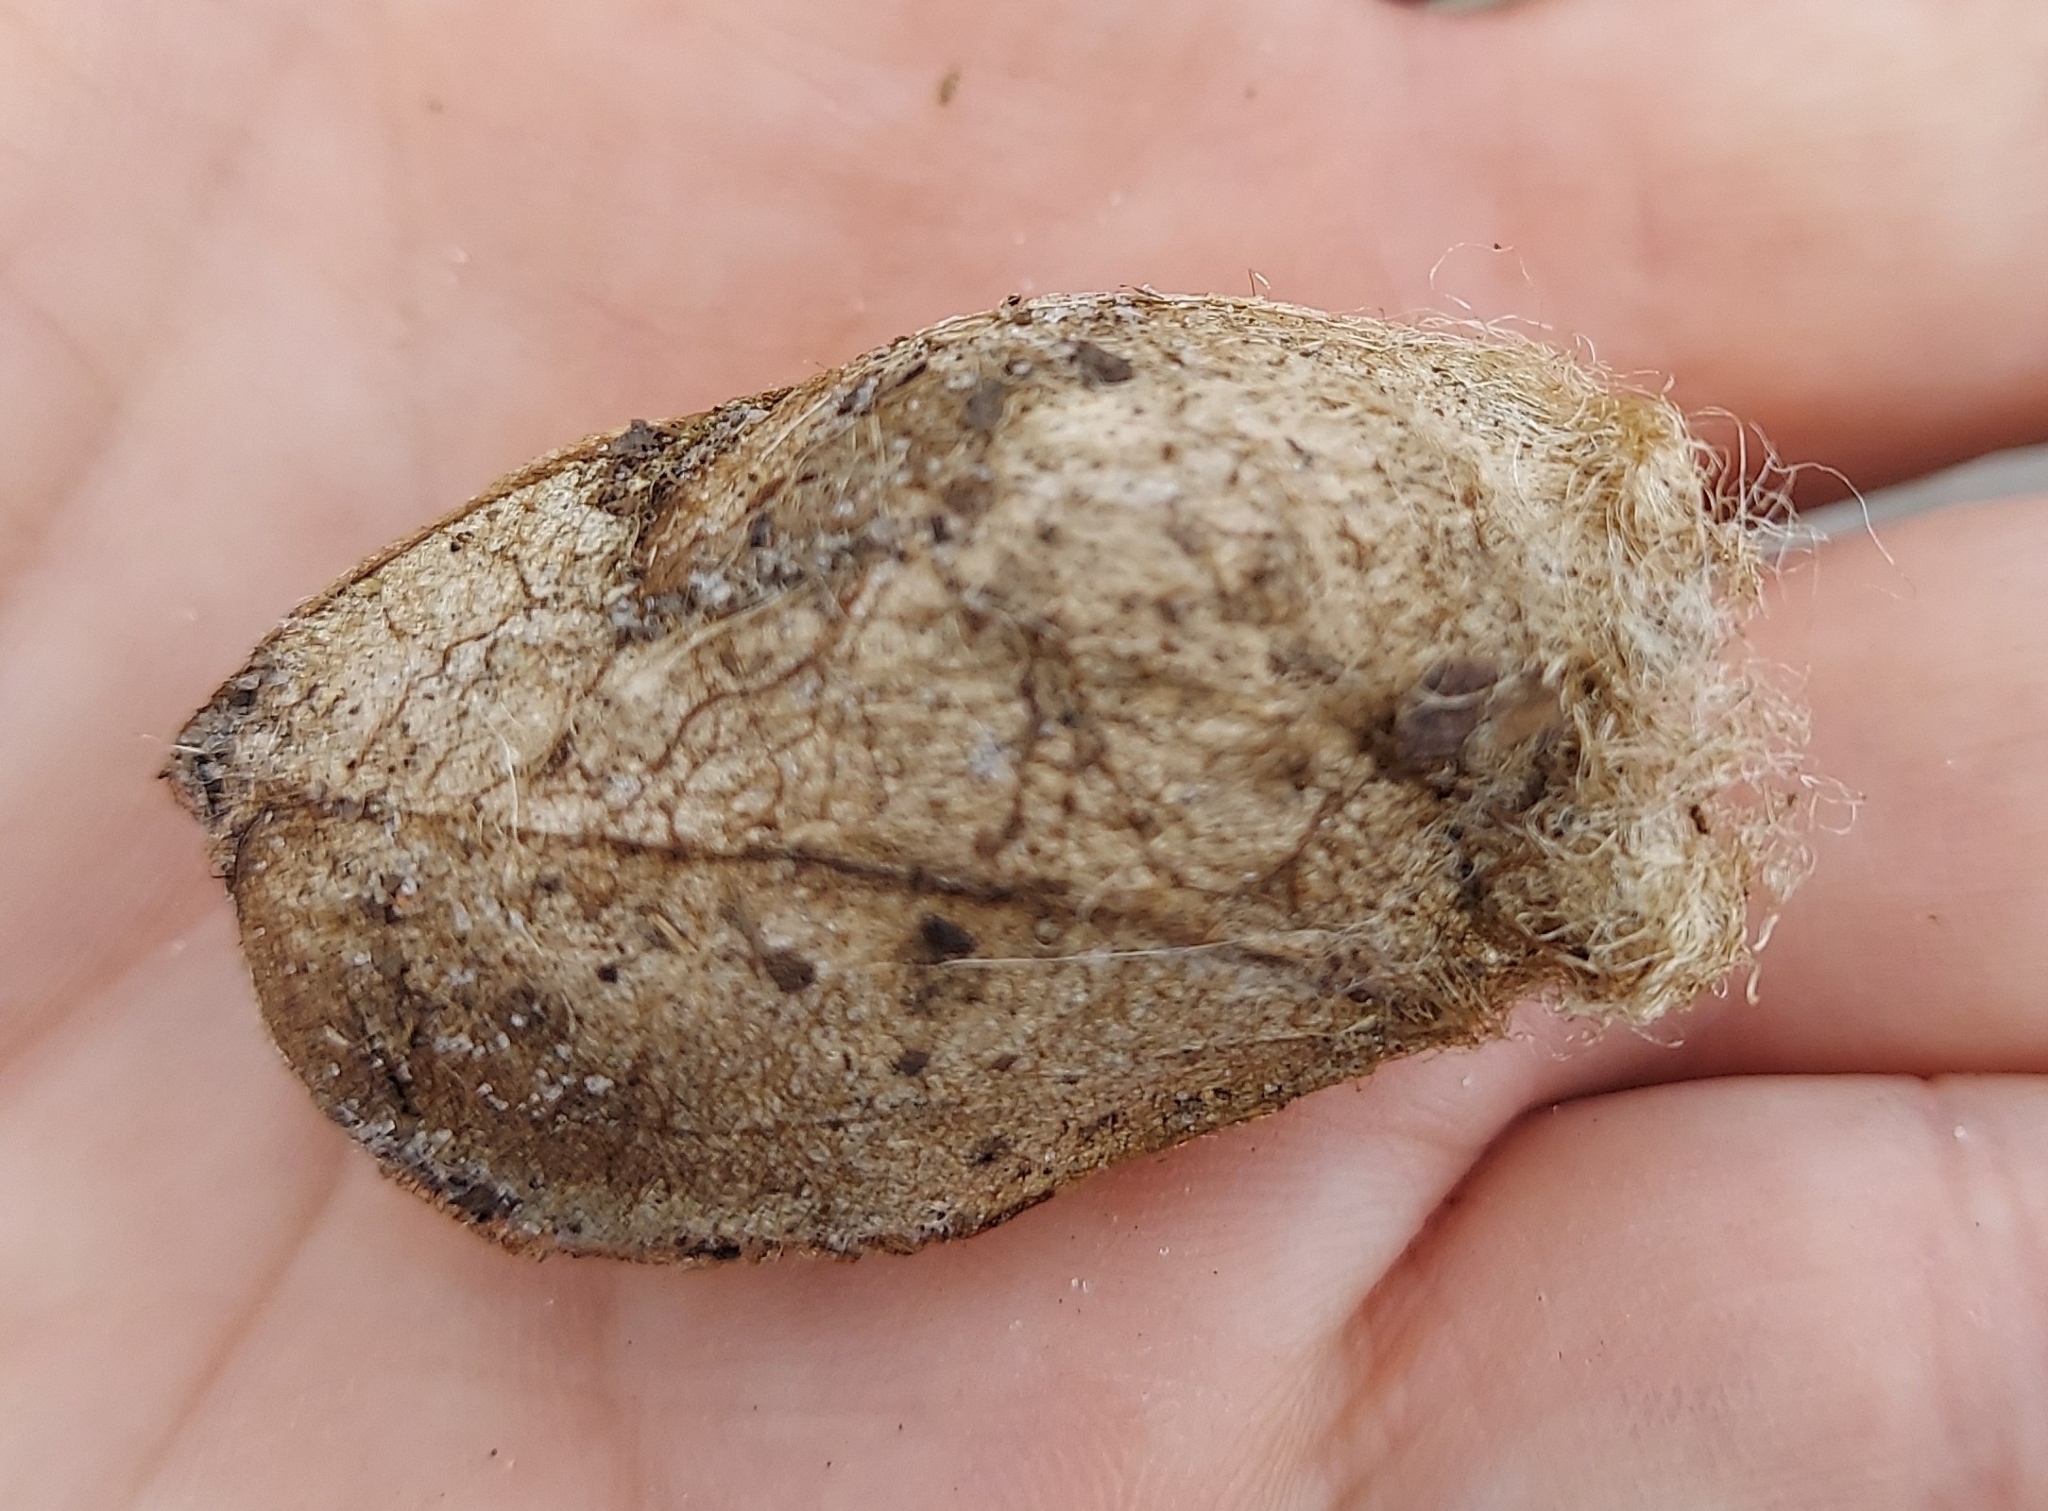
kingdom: Animalia
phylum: Arthropoda
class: Insecta
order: Lepidoptera
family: Saturniidae
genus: Antheraea
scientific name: Antheraea polyphemus
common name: Polyphemus moth
